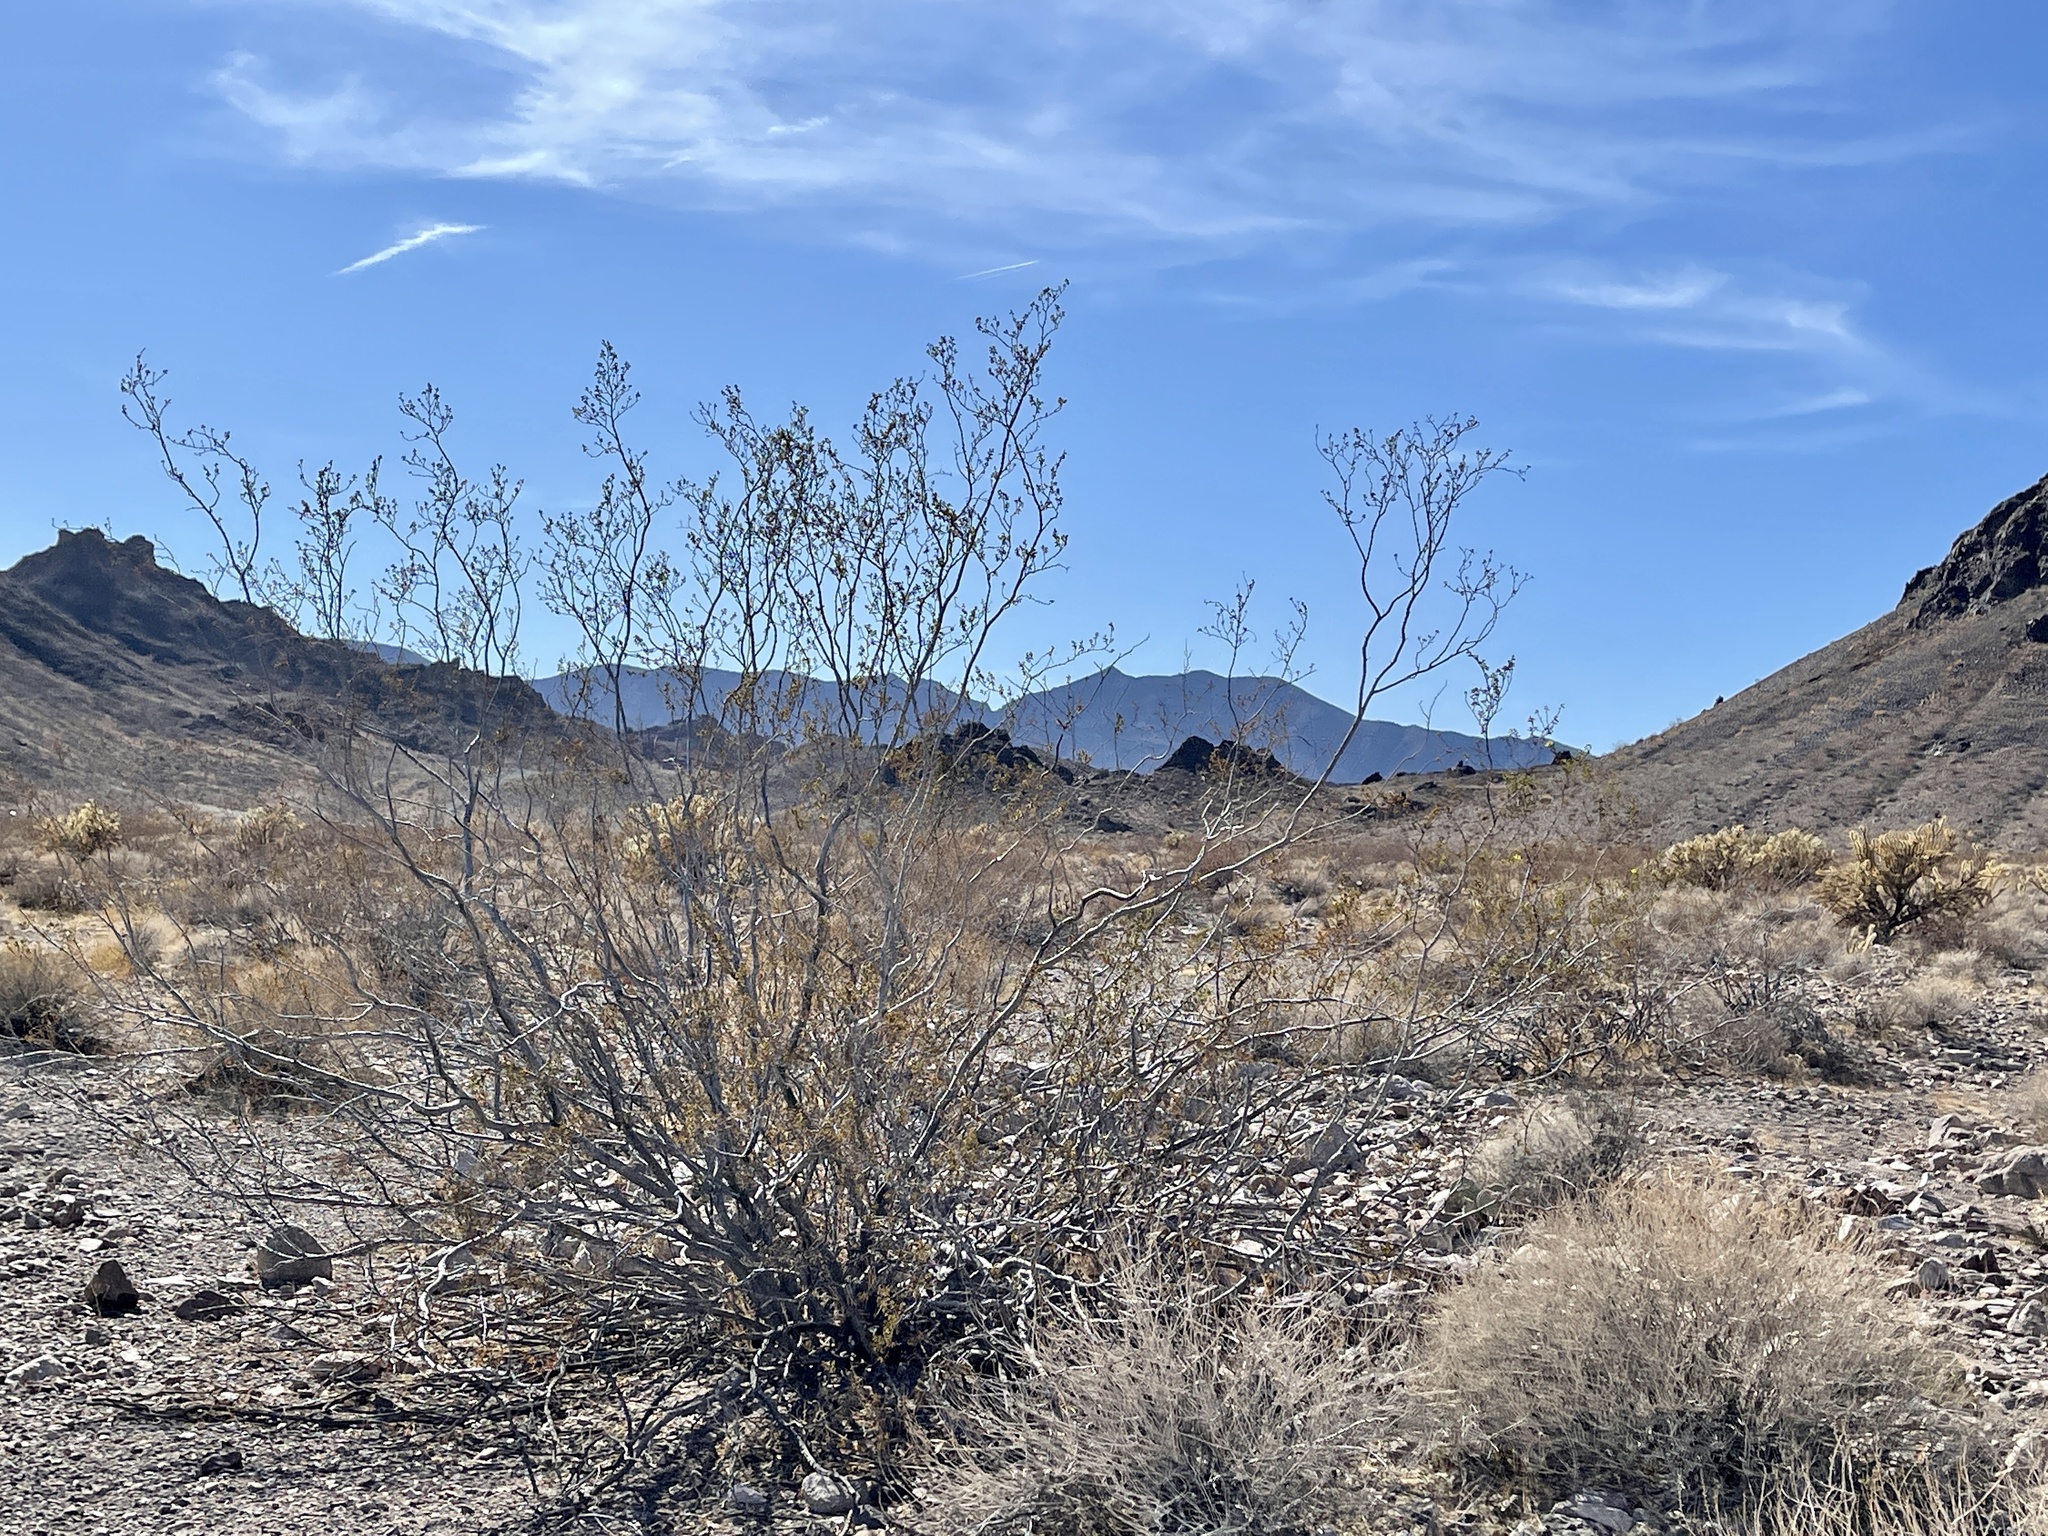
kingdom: Plantae
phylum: Tracheophyta
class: Magnoliopsida
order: Zygophyllales
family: Zygophyllaceae
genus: Larrea
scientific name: Larrea tridentata
